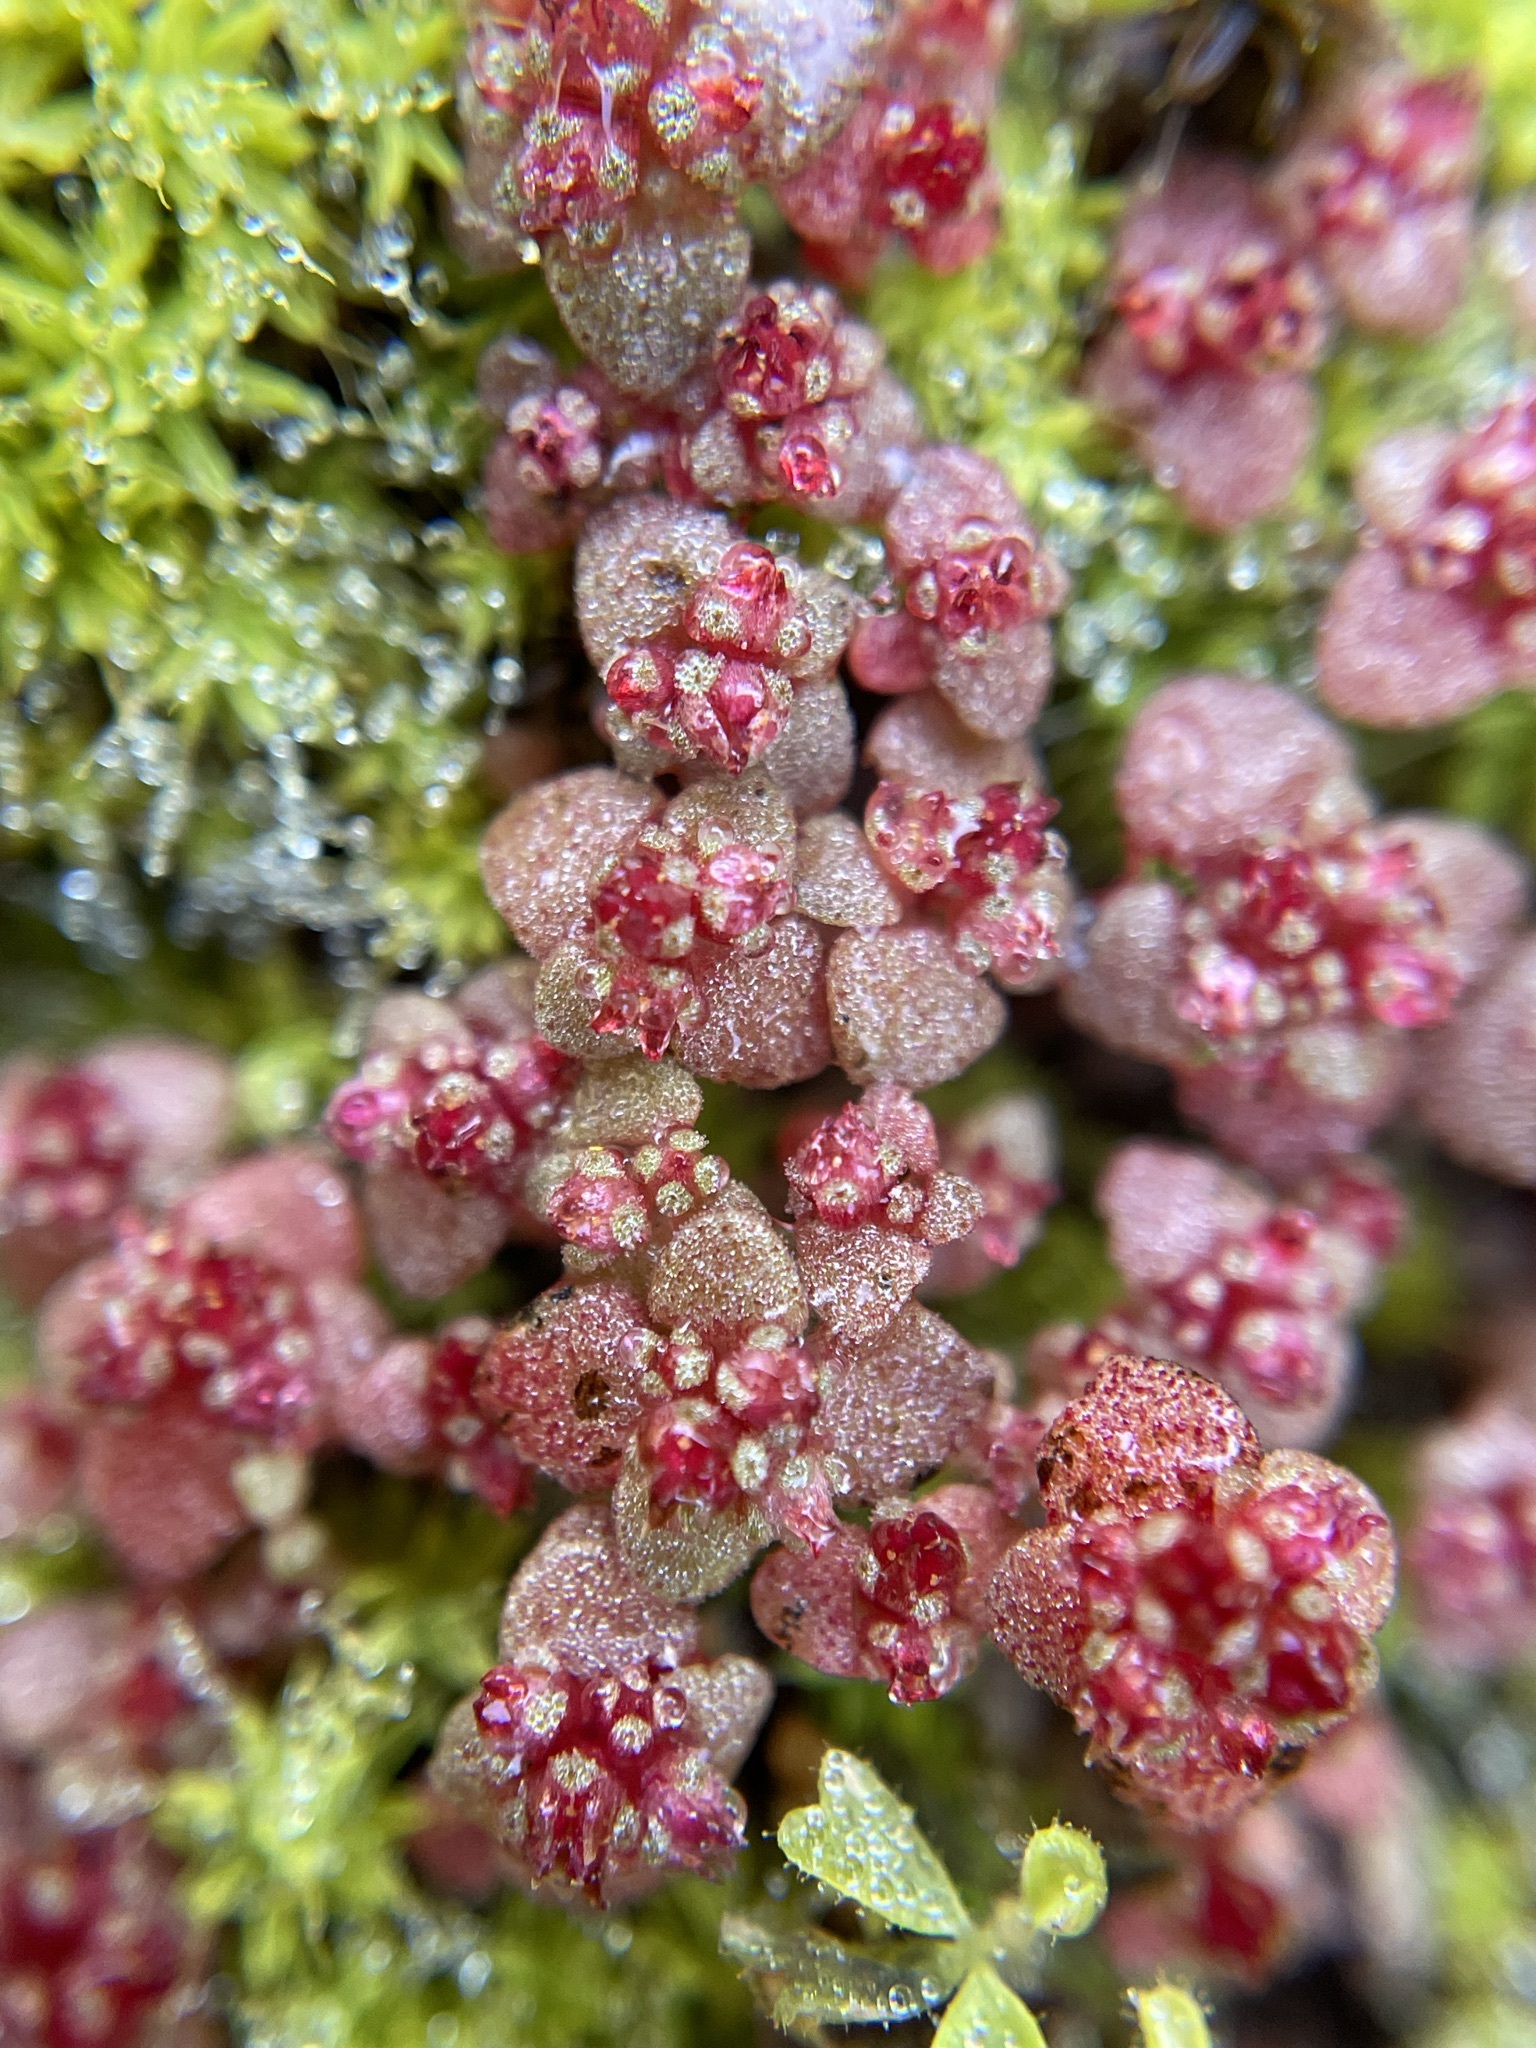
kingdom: Plantae
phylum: Tracheophyta
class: Magnoliopsida
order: Saxifragales
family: Crassulaceae
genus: Crassula
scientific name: Crassula umbellata
